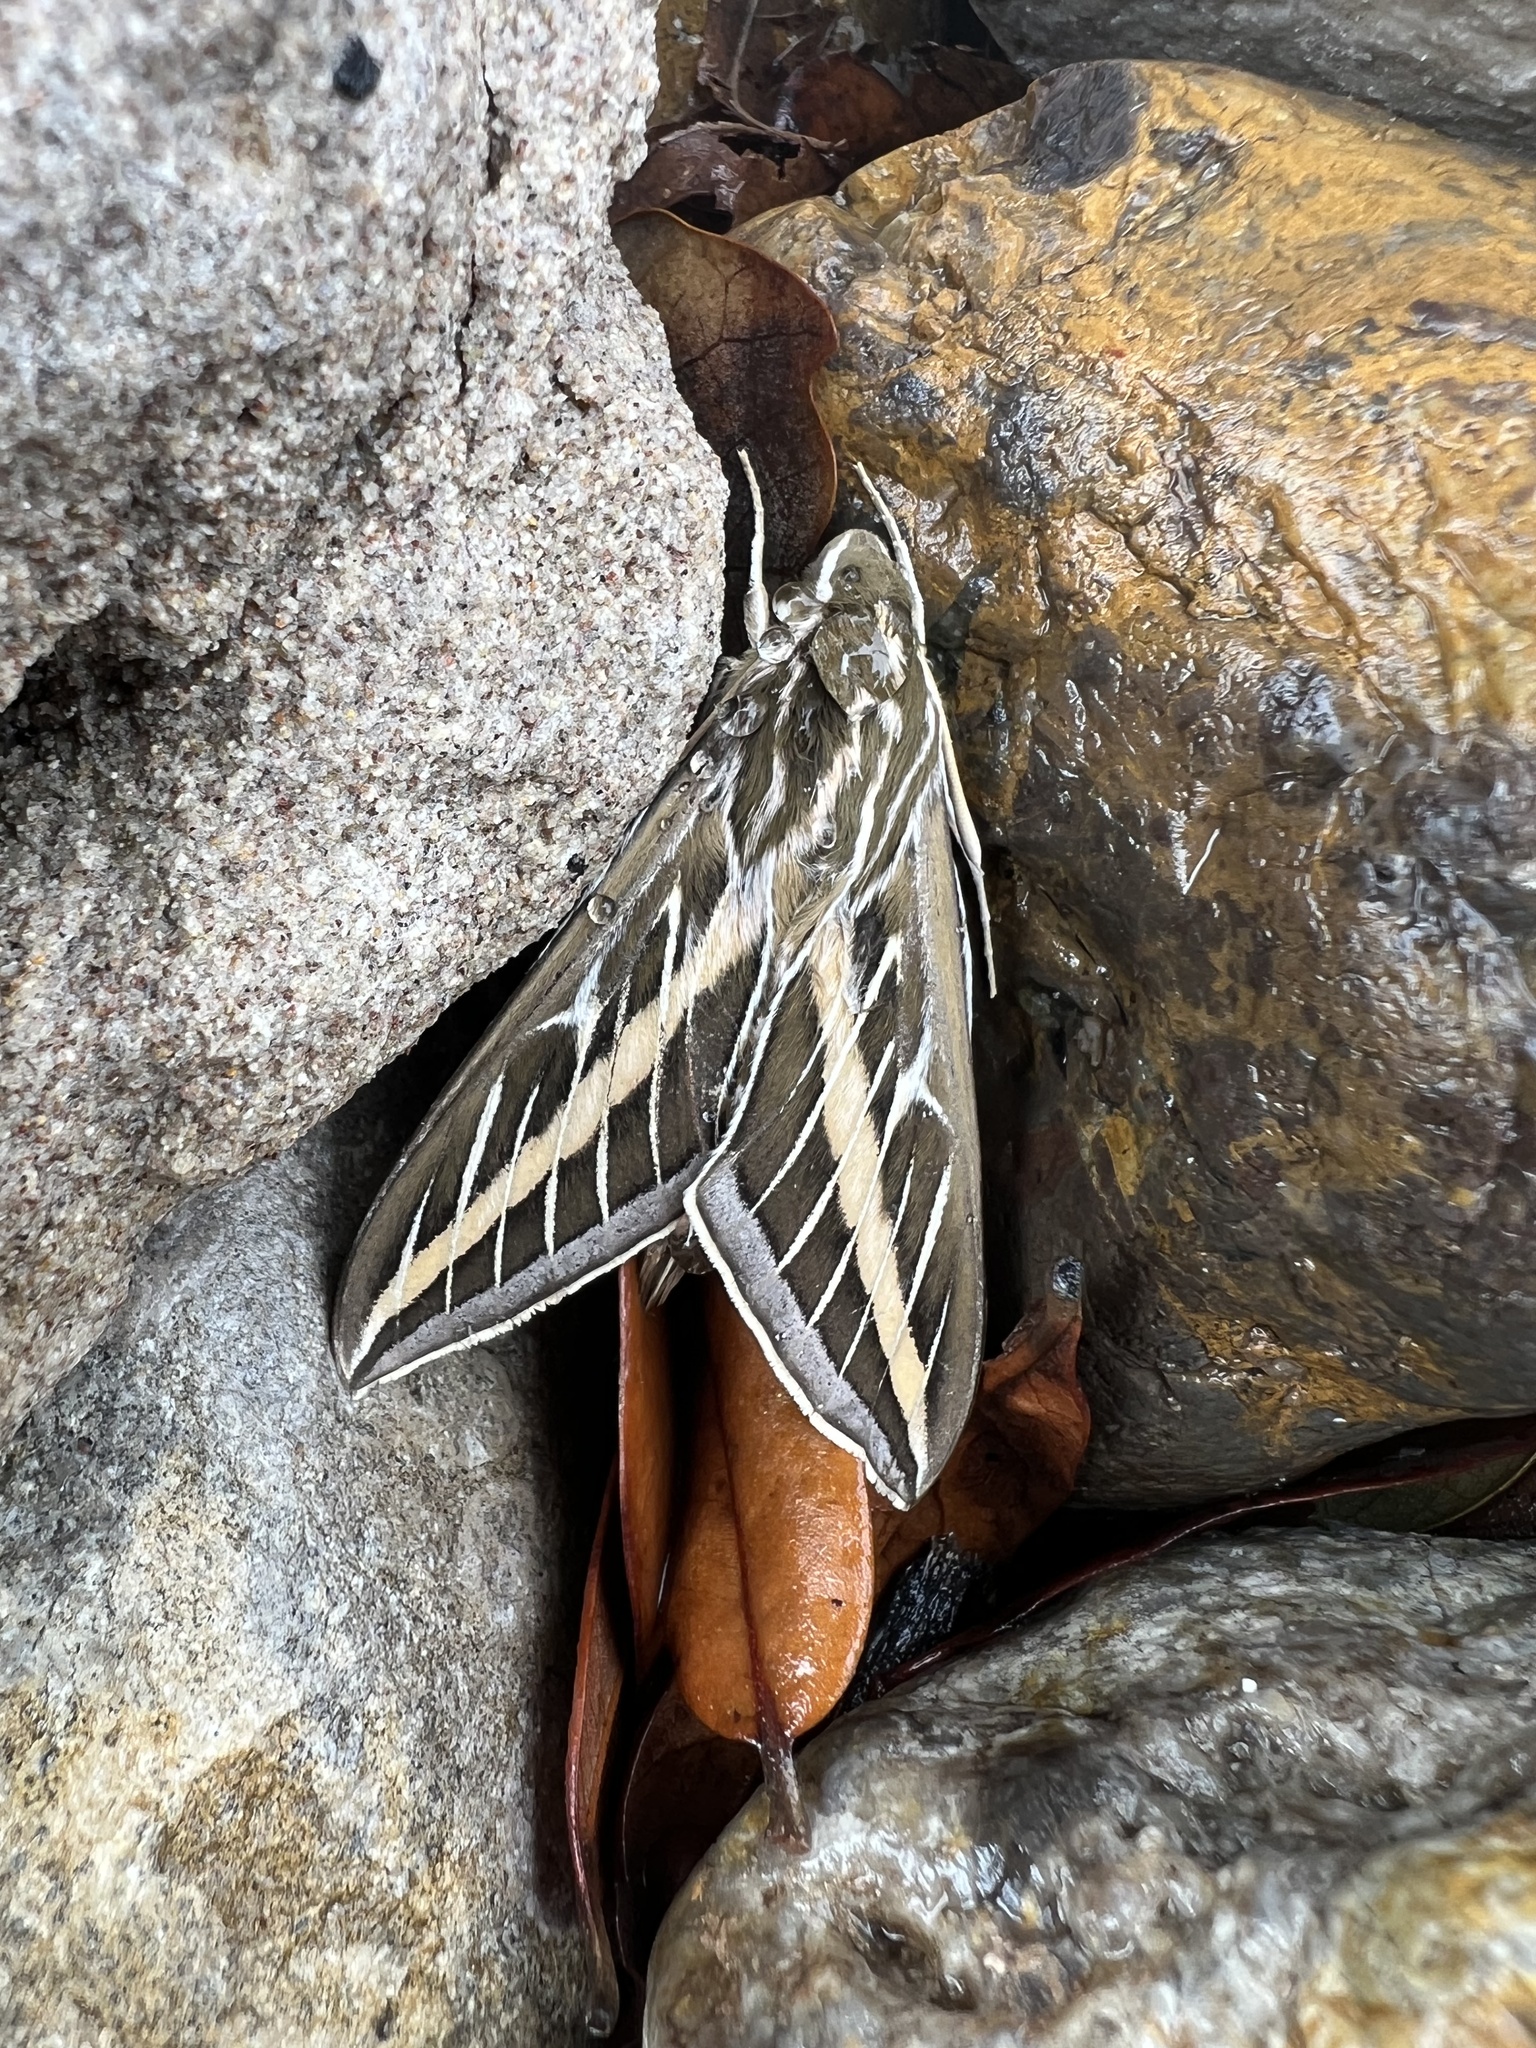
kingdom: Animalia
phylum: Arthropoda
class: Insecta
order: Lepidoptera
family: Sphingidae
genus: Hyles
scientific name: Hyles lineata
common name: White-lined sphinx
